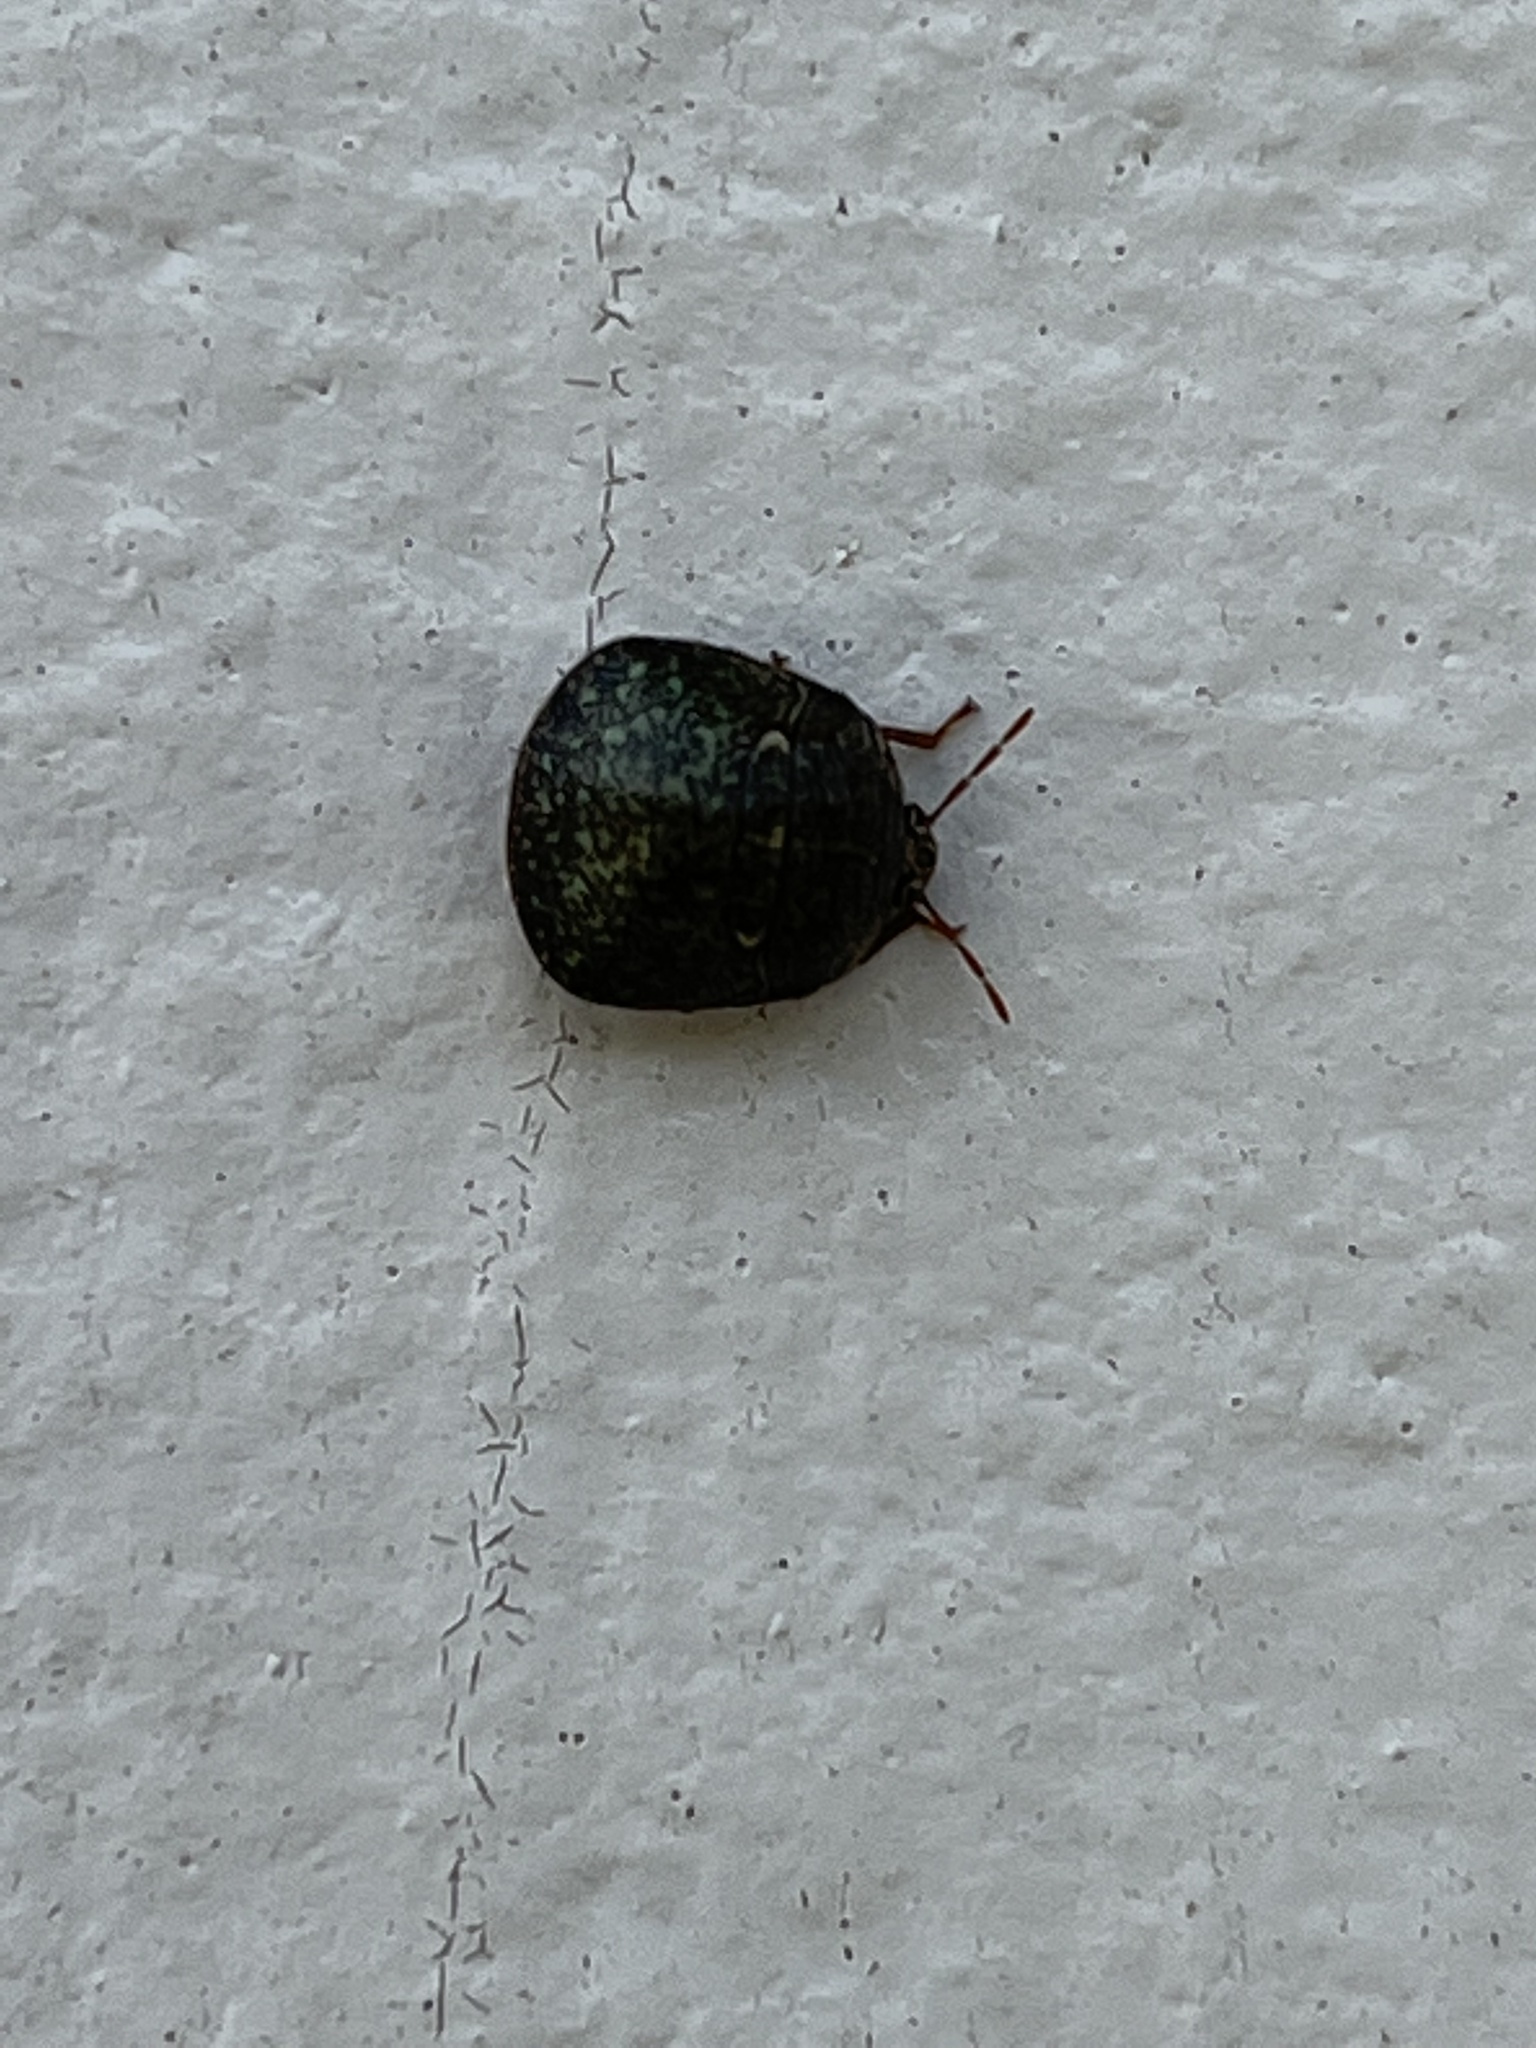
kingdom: Animalia
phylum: Arthropoda
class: Insecta
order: Hemiptera
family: Plataspidae
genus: Megacopta
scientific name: Megacopta cribraria
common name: Bean plataspid
